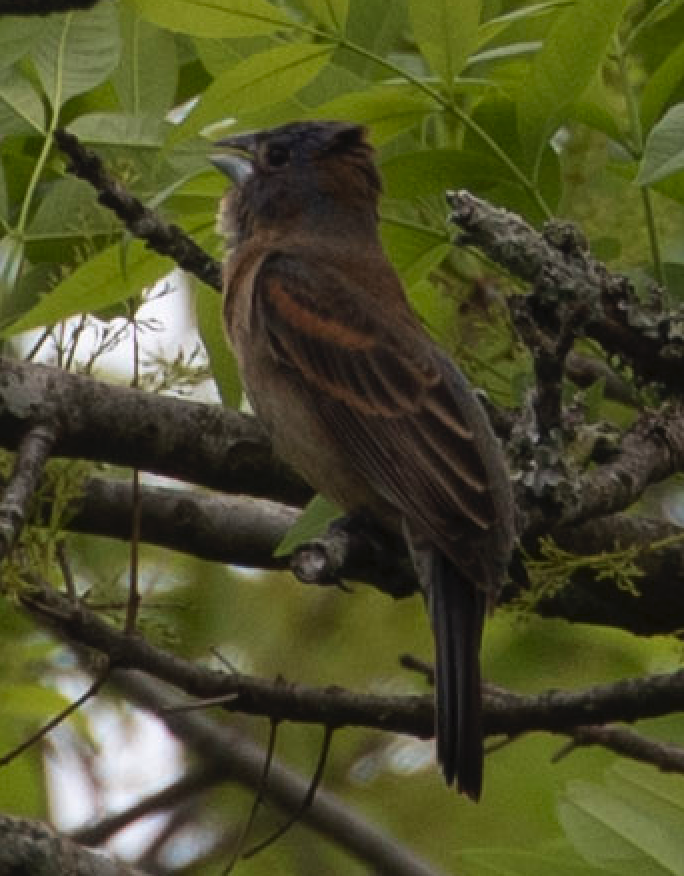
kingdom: Animalia
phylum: Chordata
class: Aves
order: Passeriformes
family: Cardinalidae
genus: Passerina
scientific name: Passerina caerulea
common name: Blue grosbeak
